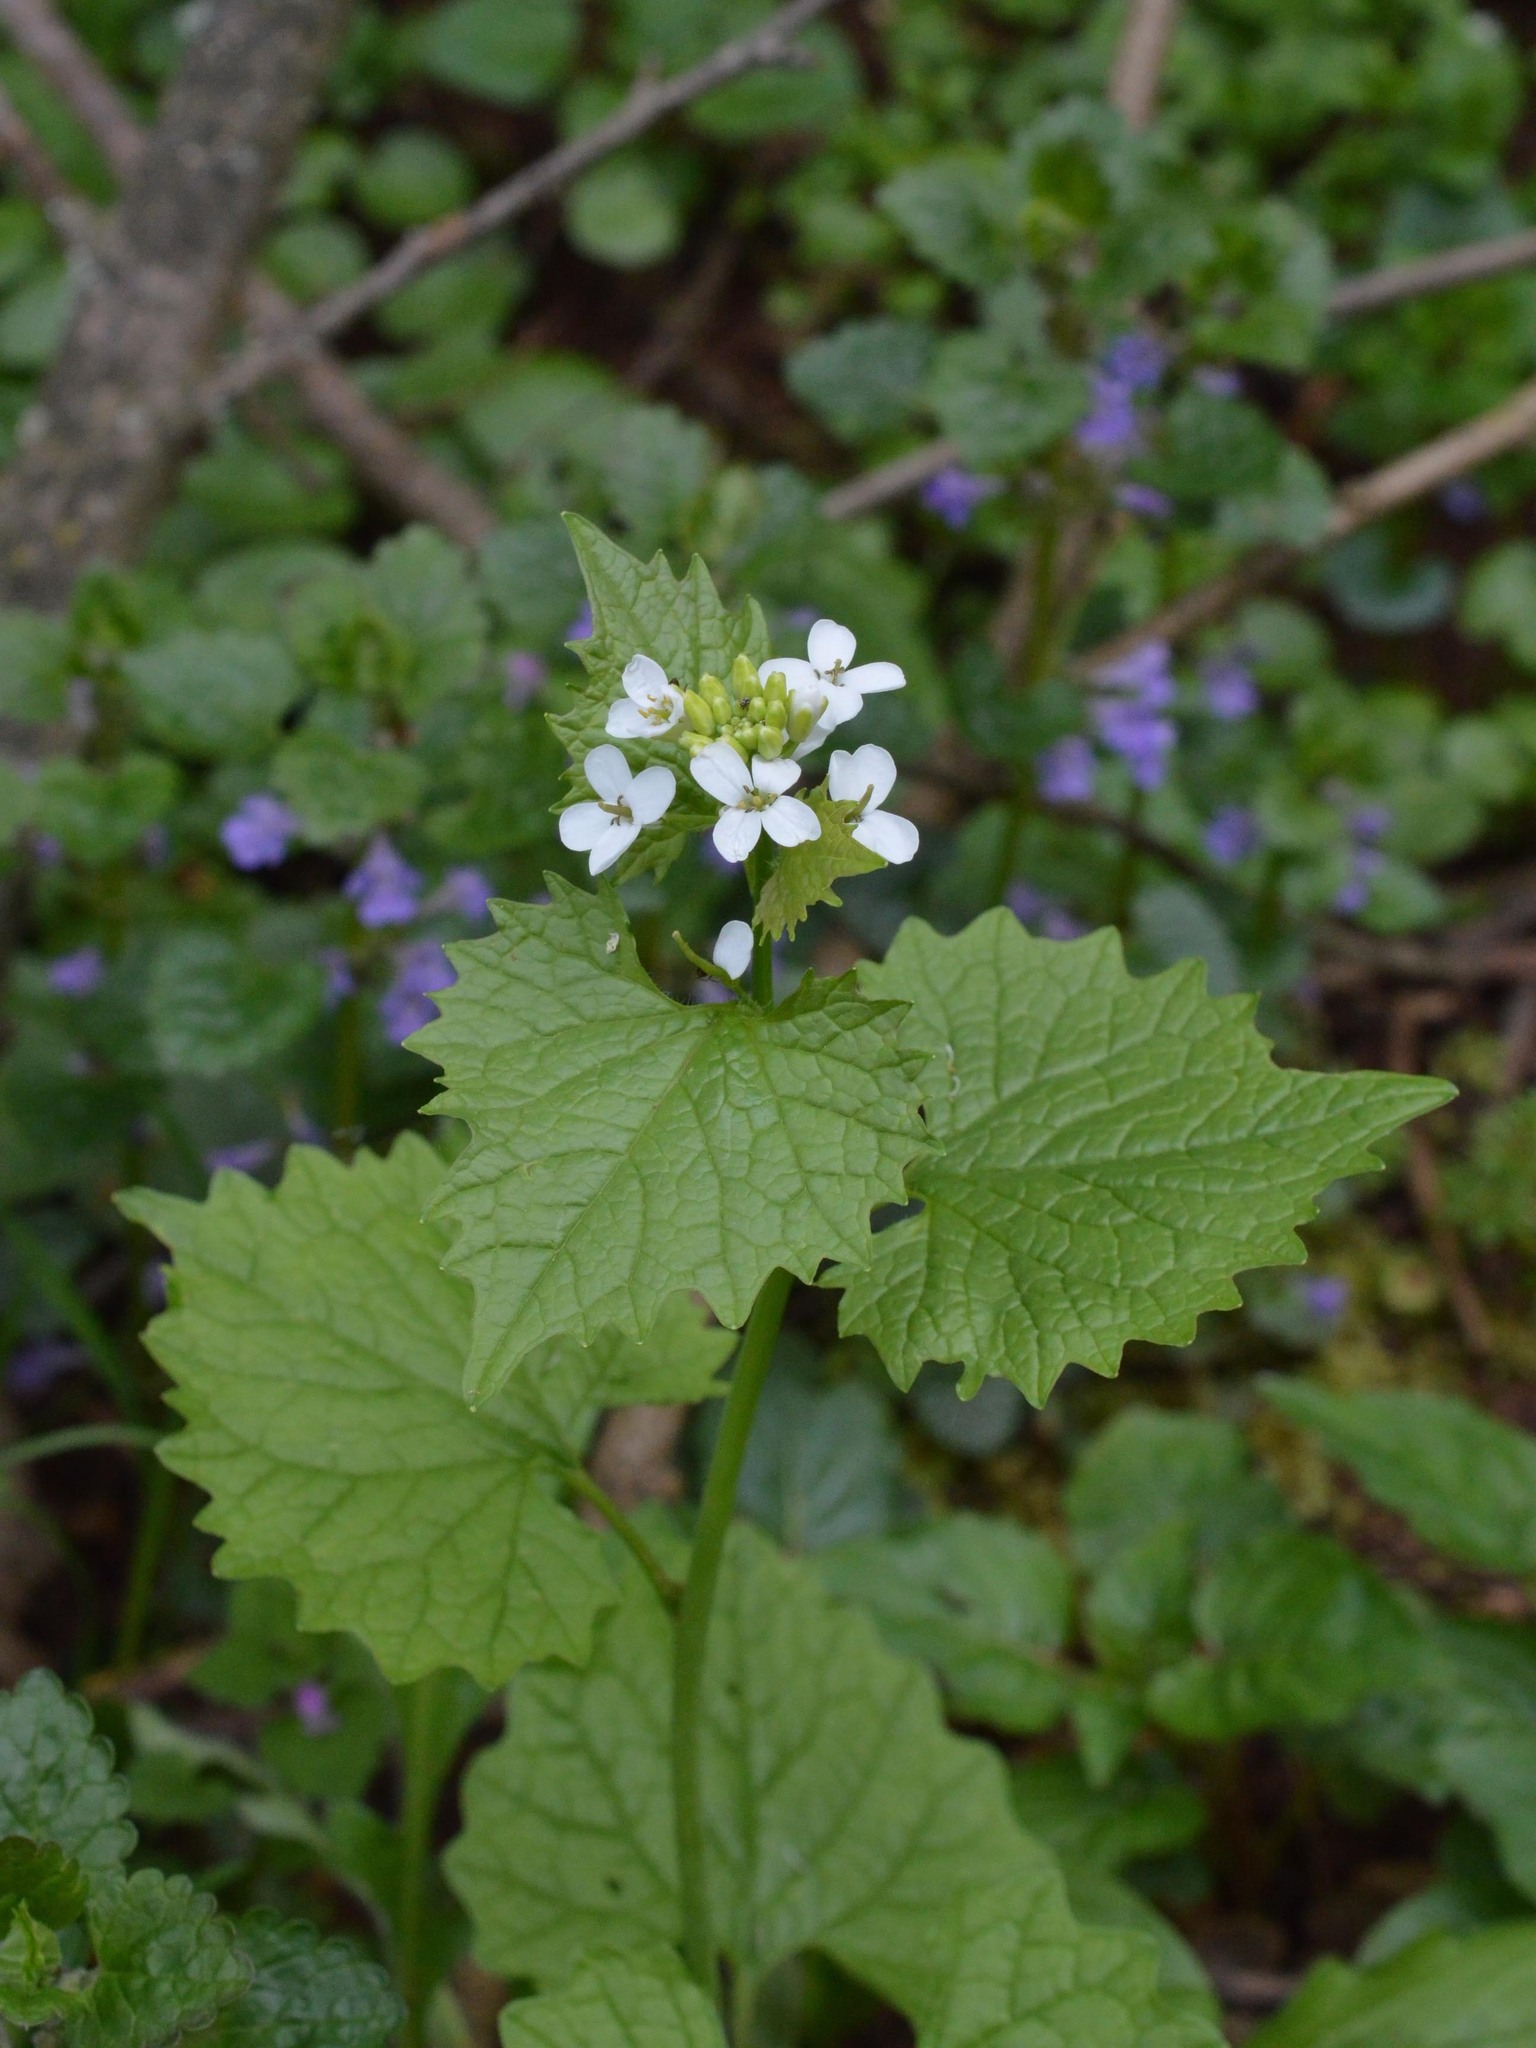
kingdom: Plantae
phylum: Tracheophyta
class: Magnoliopsida
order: Brassicales
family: Brassicaceae
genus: Alliaria
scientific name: Alliaria petiolata
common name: Garlic mustard
